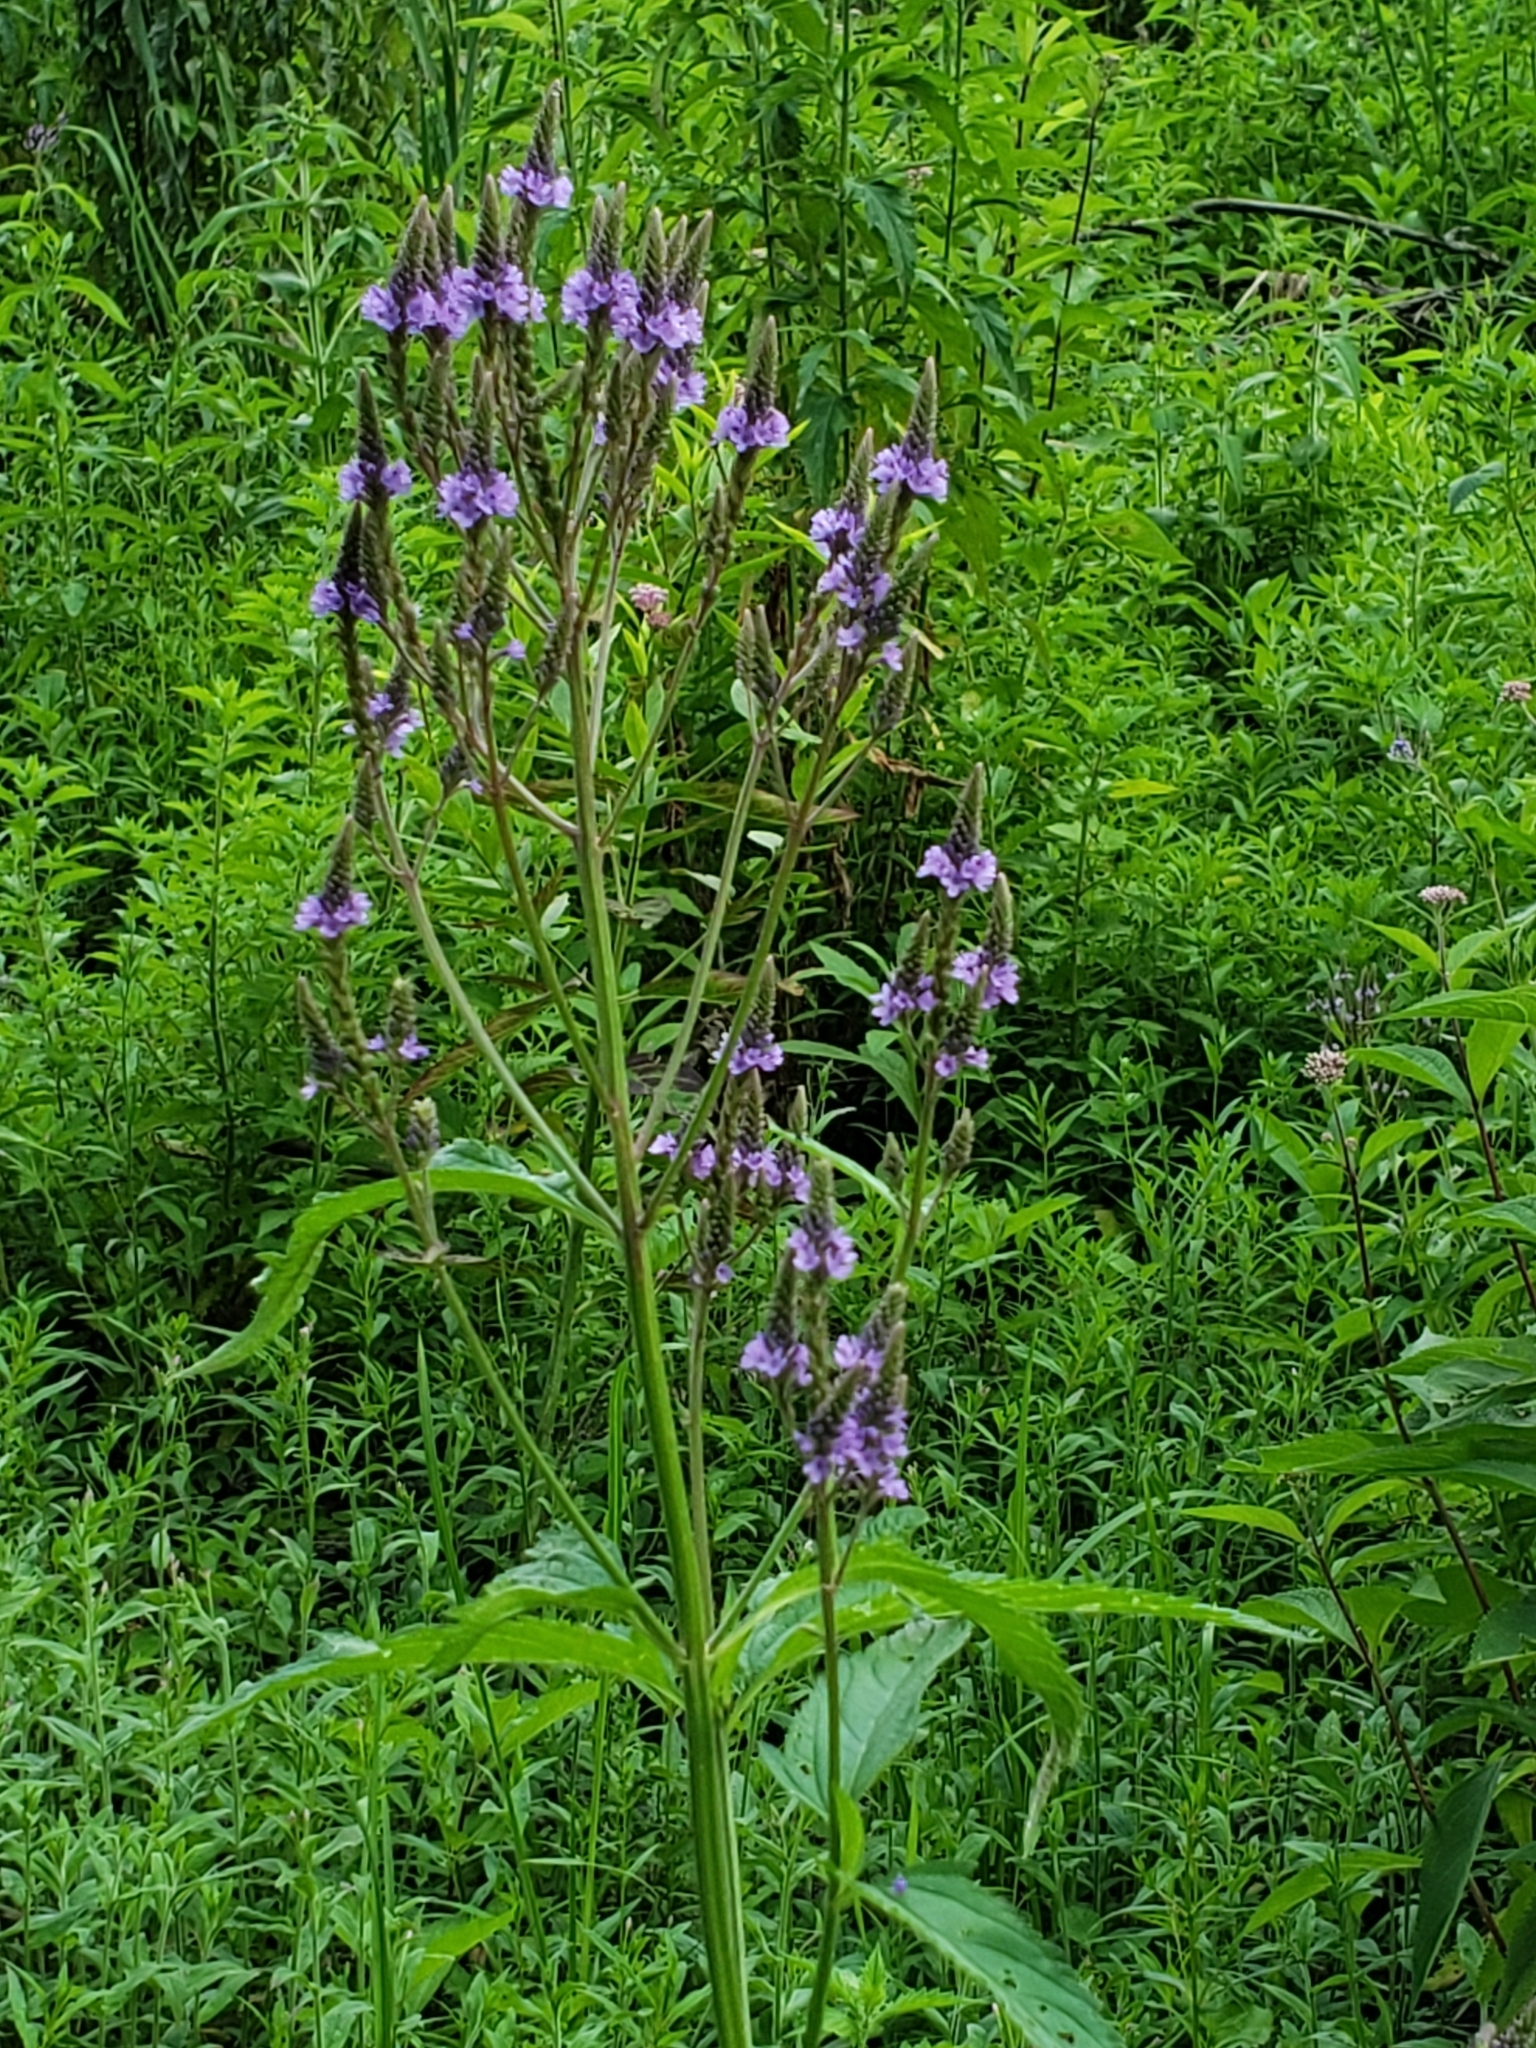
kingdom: Plantae
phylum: Tracheophyta
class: Magnoliopsida
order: Lamiales
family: Verbenaceae
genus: Verbena
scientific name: Verbena hastata
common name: American blue vervain
